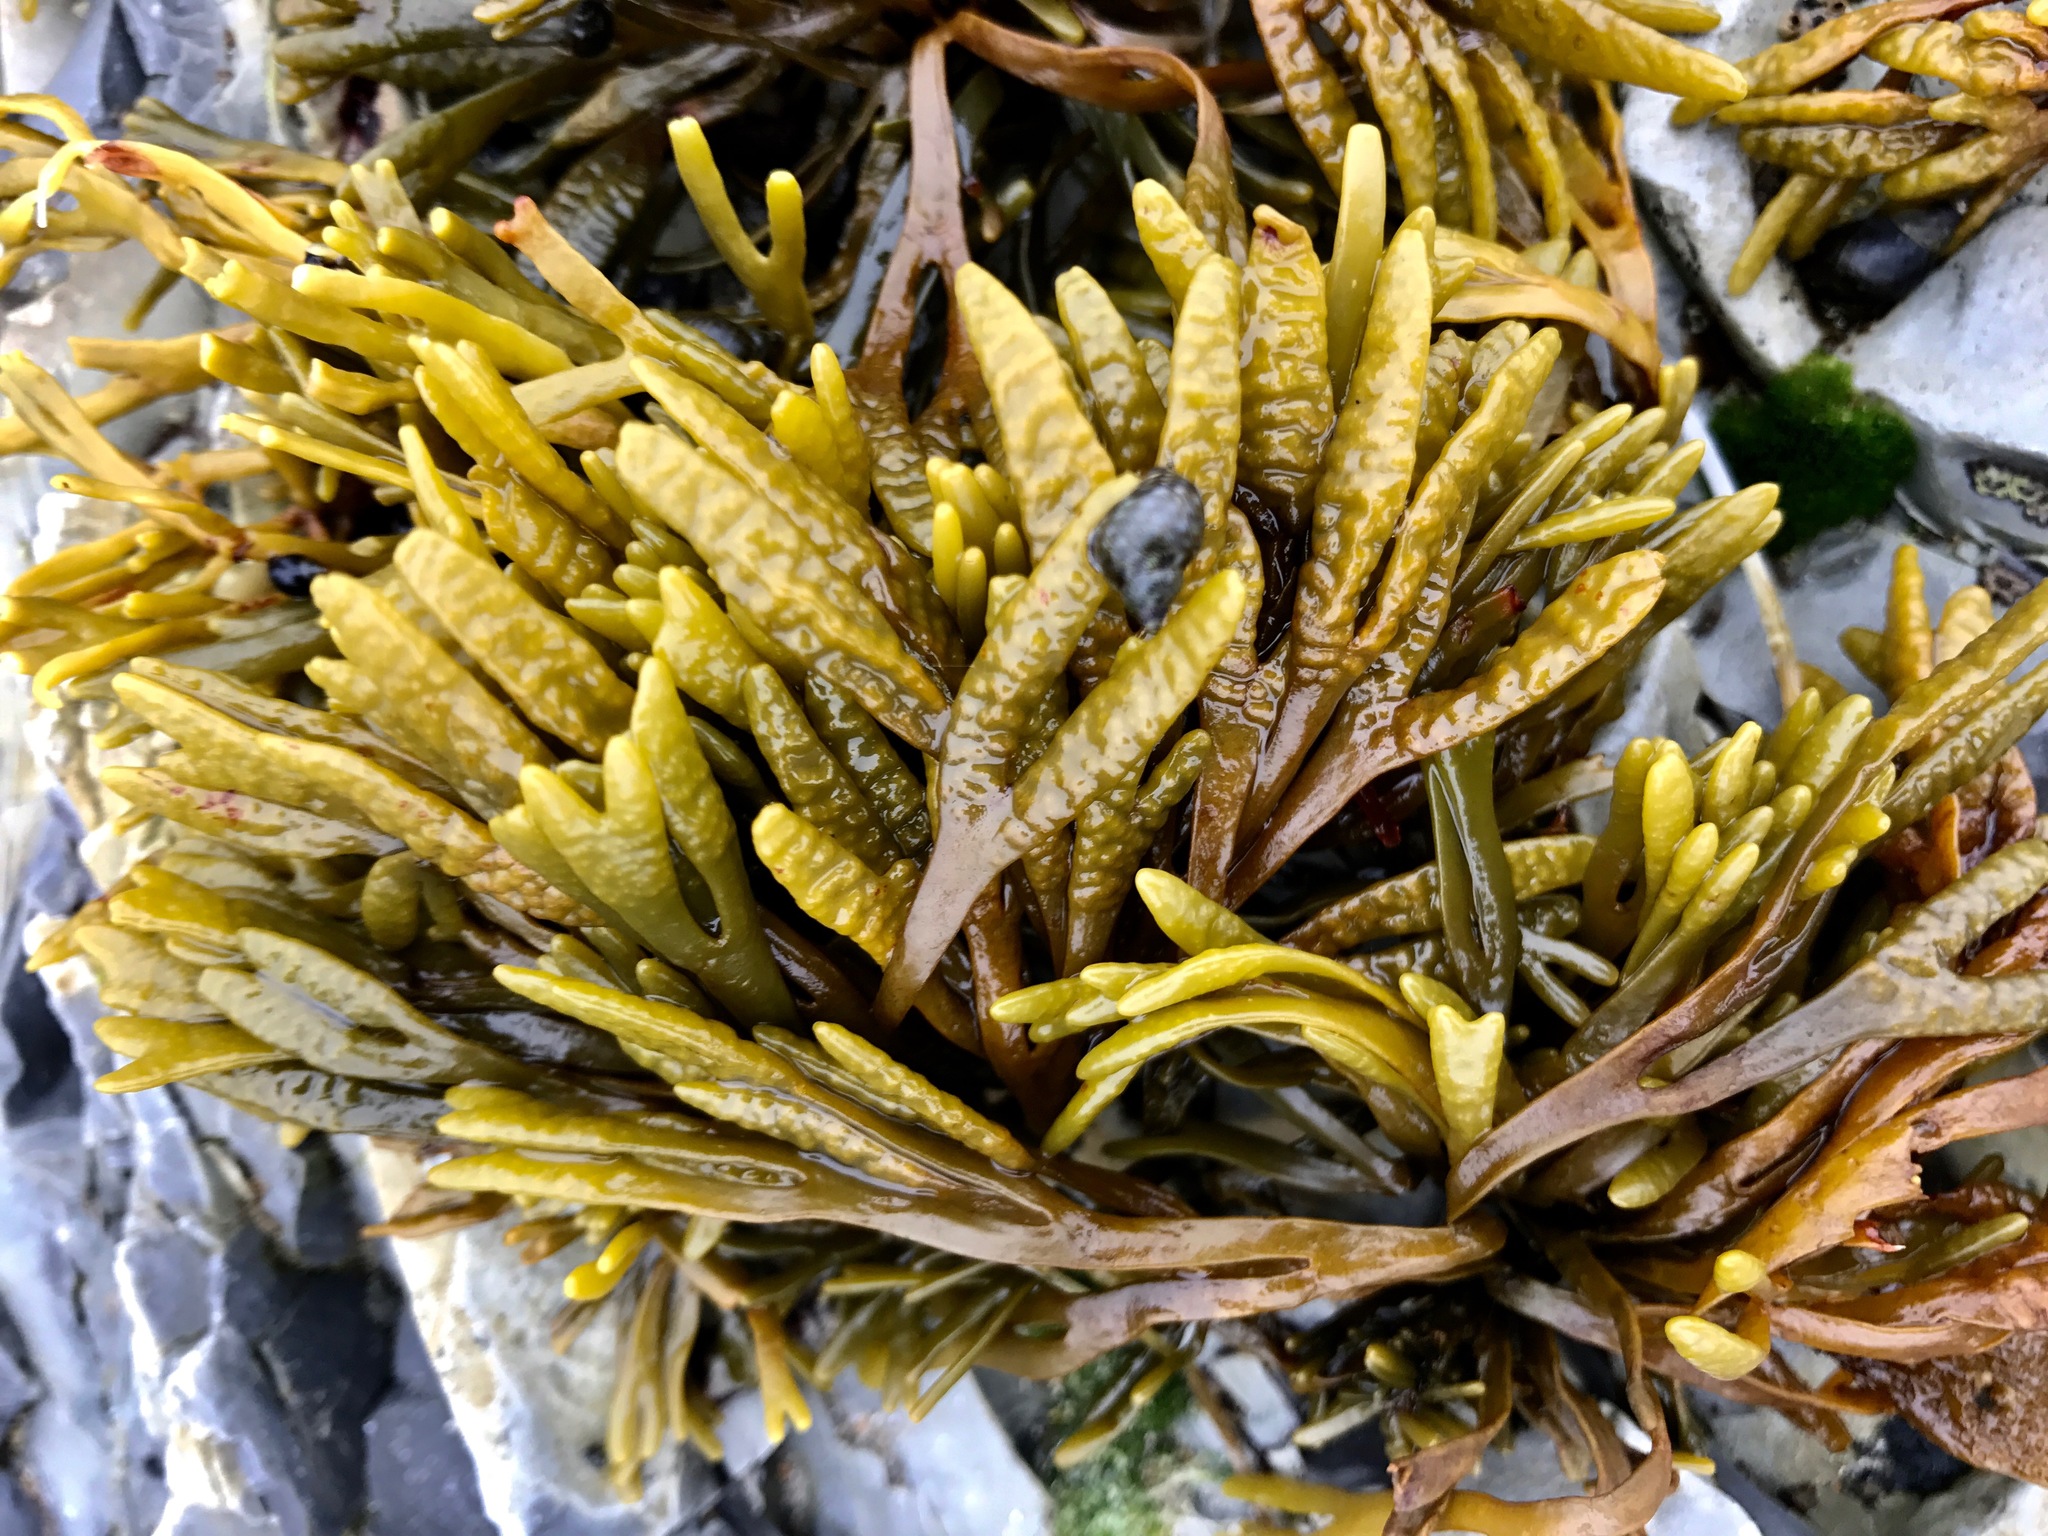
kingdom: Chromista
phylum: Ochrophyta
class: Phaeophyceae
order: Fucales
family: Fucaceae
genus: Pelvetiopsis
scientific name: Pelvetiopsis limitata
